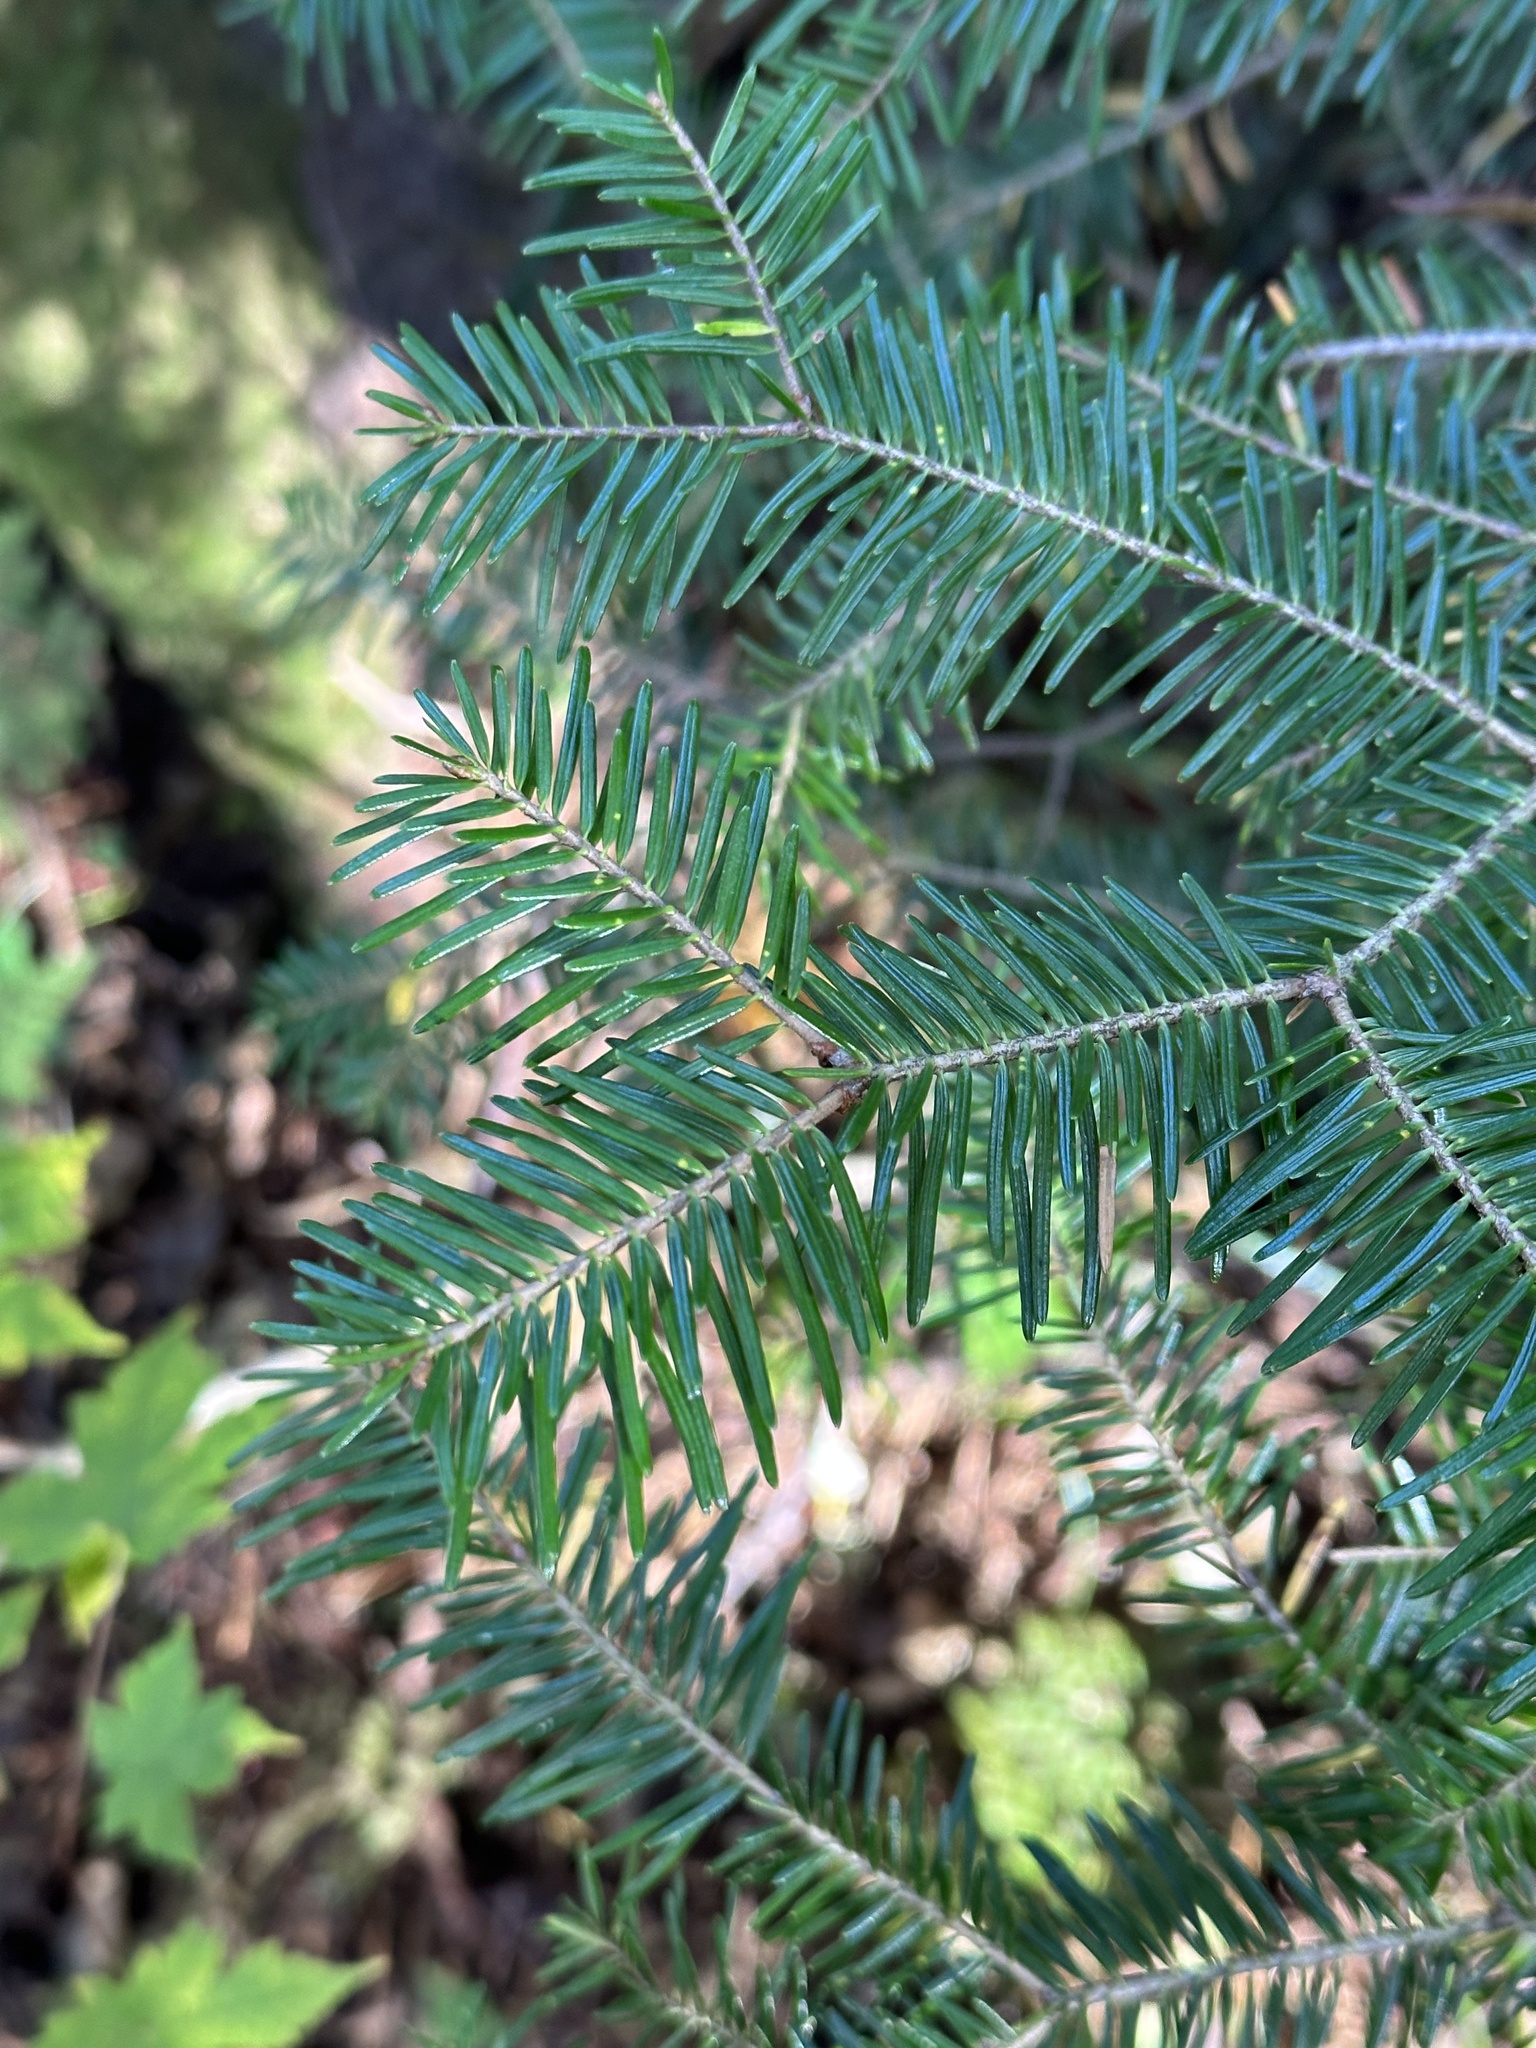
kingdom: Plantae
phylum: Tracheophyta
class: Pinopsida
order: Pinales
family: Pinaceae
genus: Abies
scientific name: Abies nephrolepis
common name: Hinggan fir
